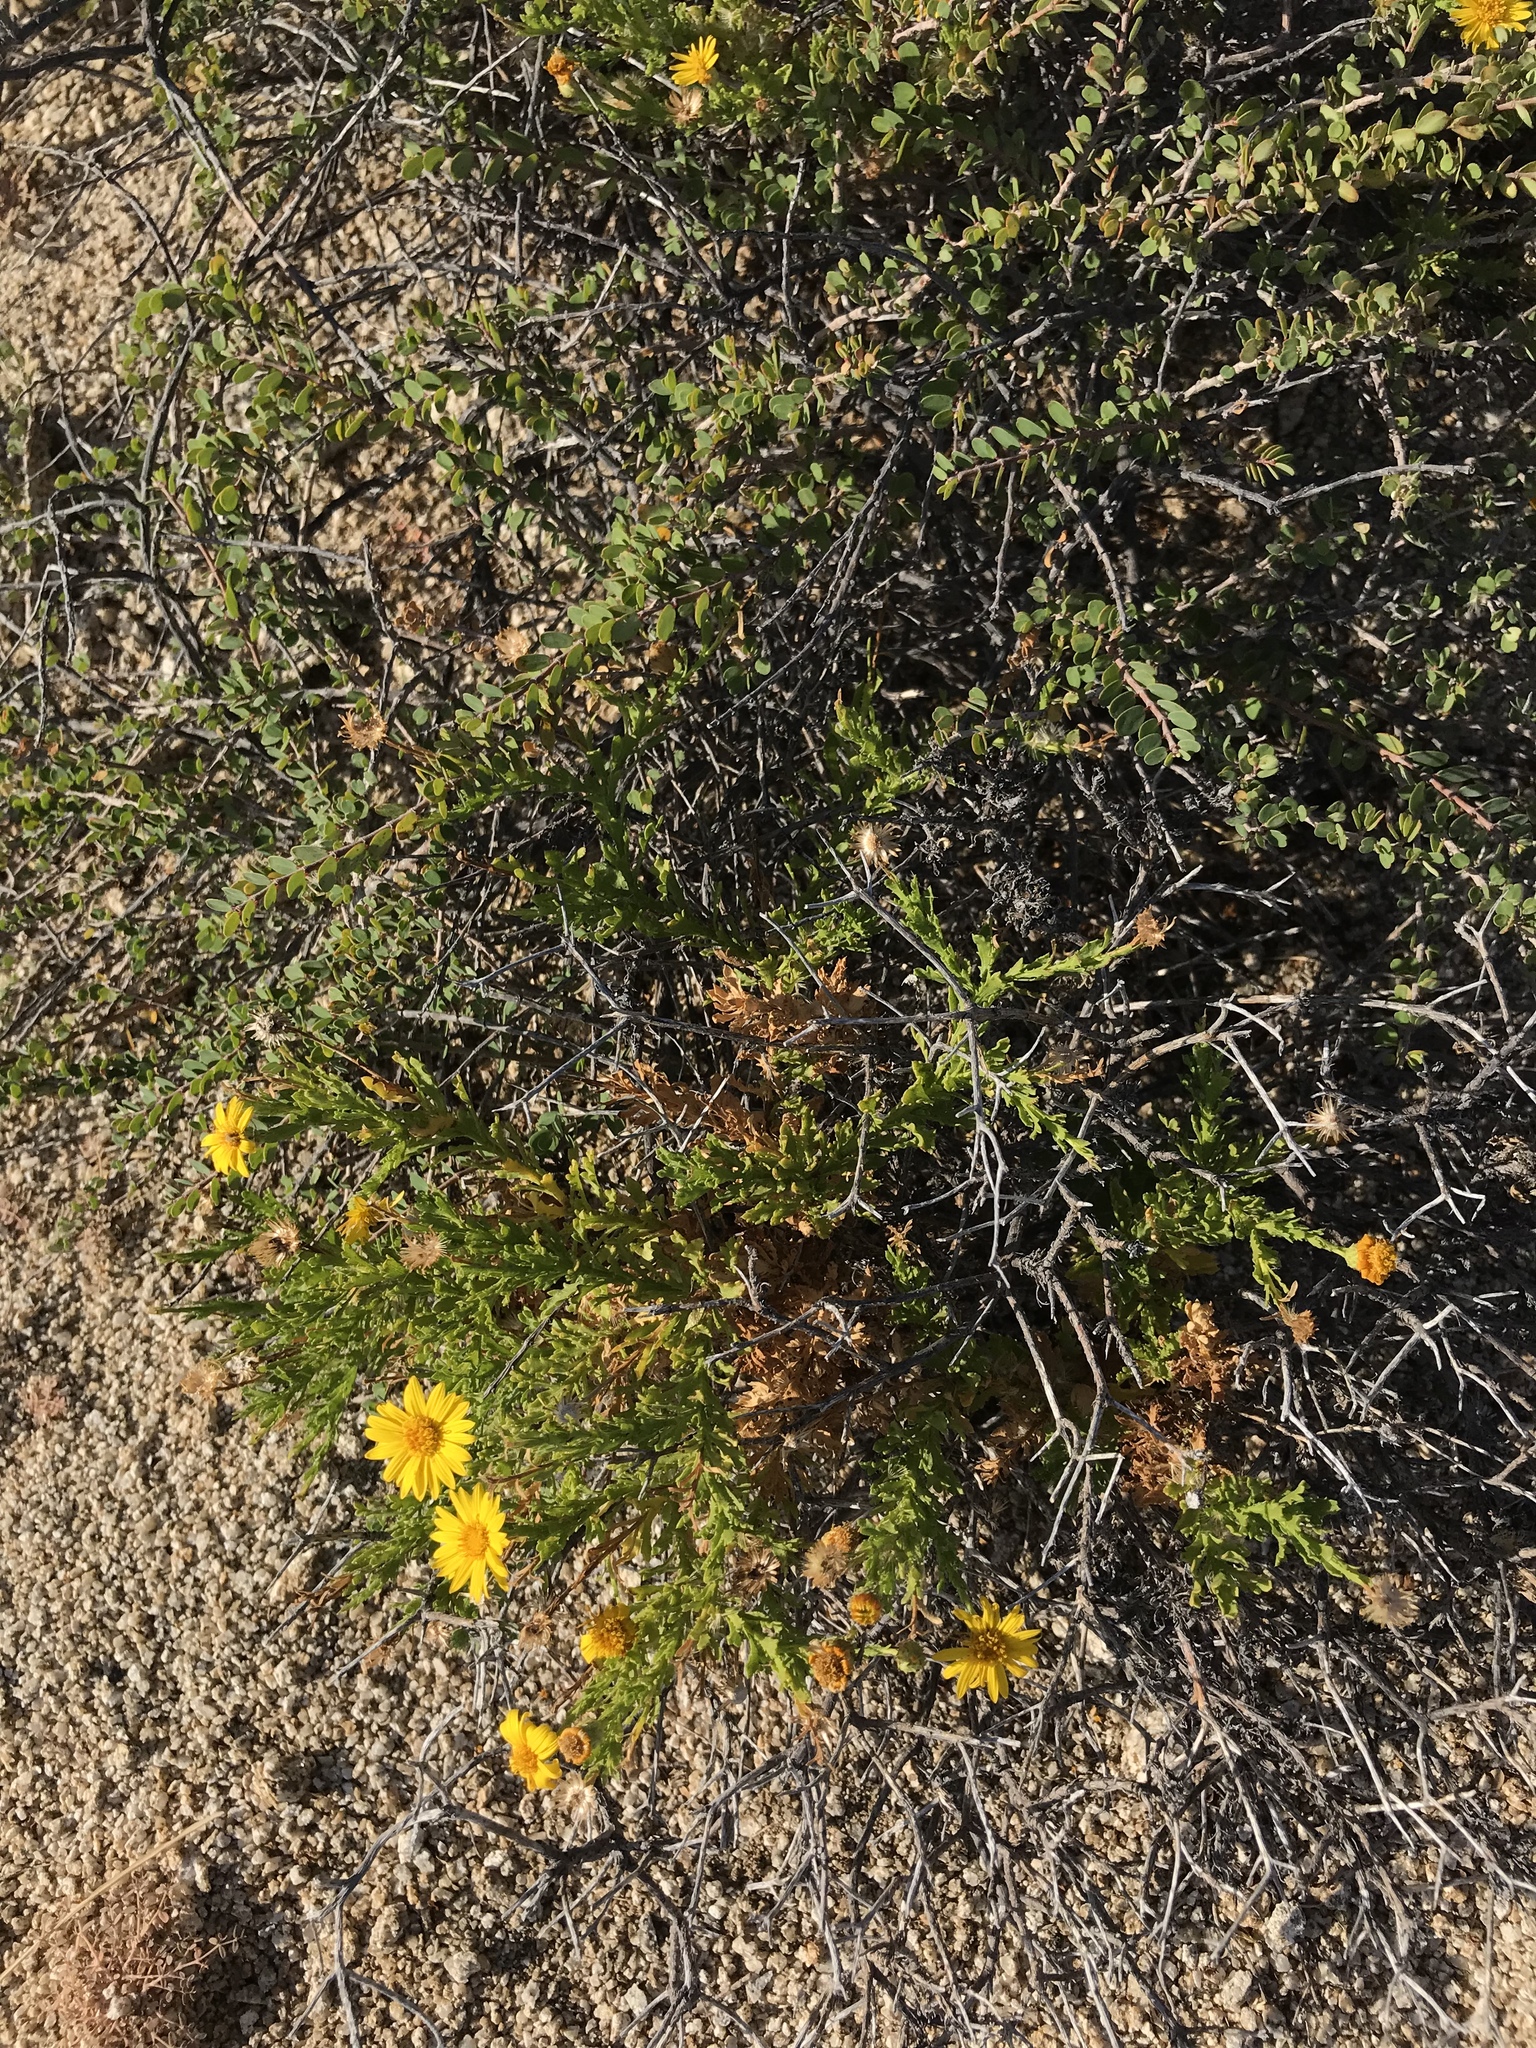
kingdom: Plantae
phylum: Tracheophyta
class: Magnoliopsida
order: Asterales
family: Asteraceae
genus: Xanthisma
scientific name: Xanthisma spinulosum
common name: Spiny goldenweed
